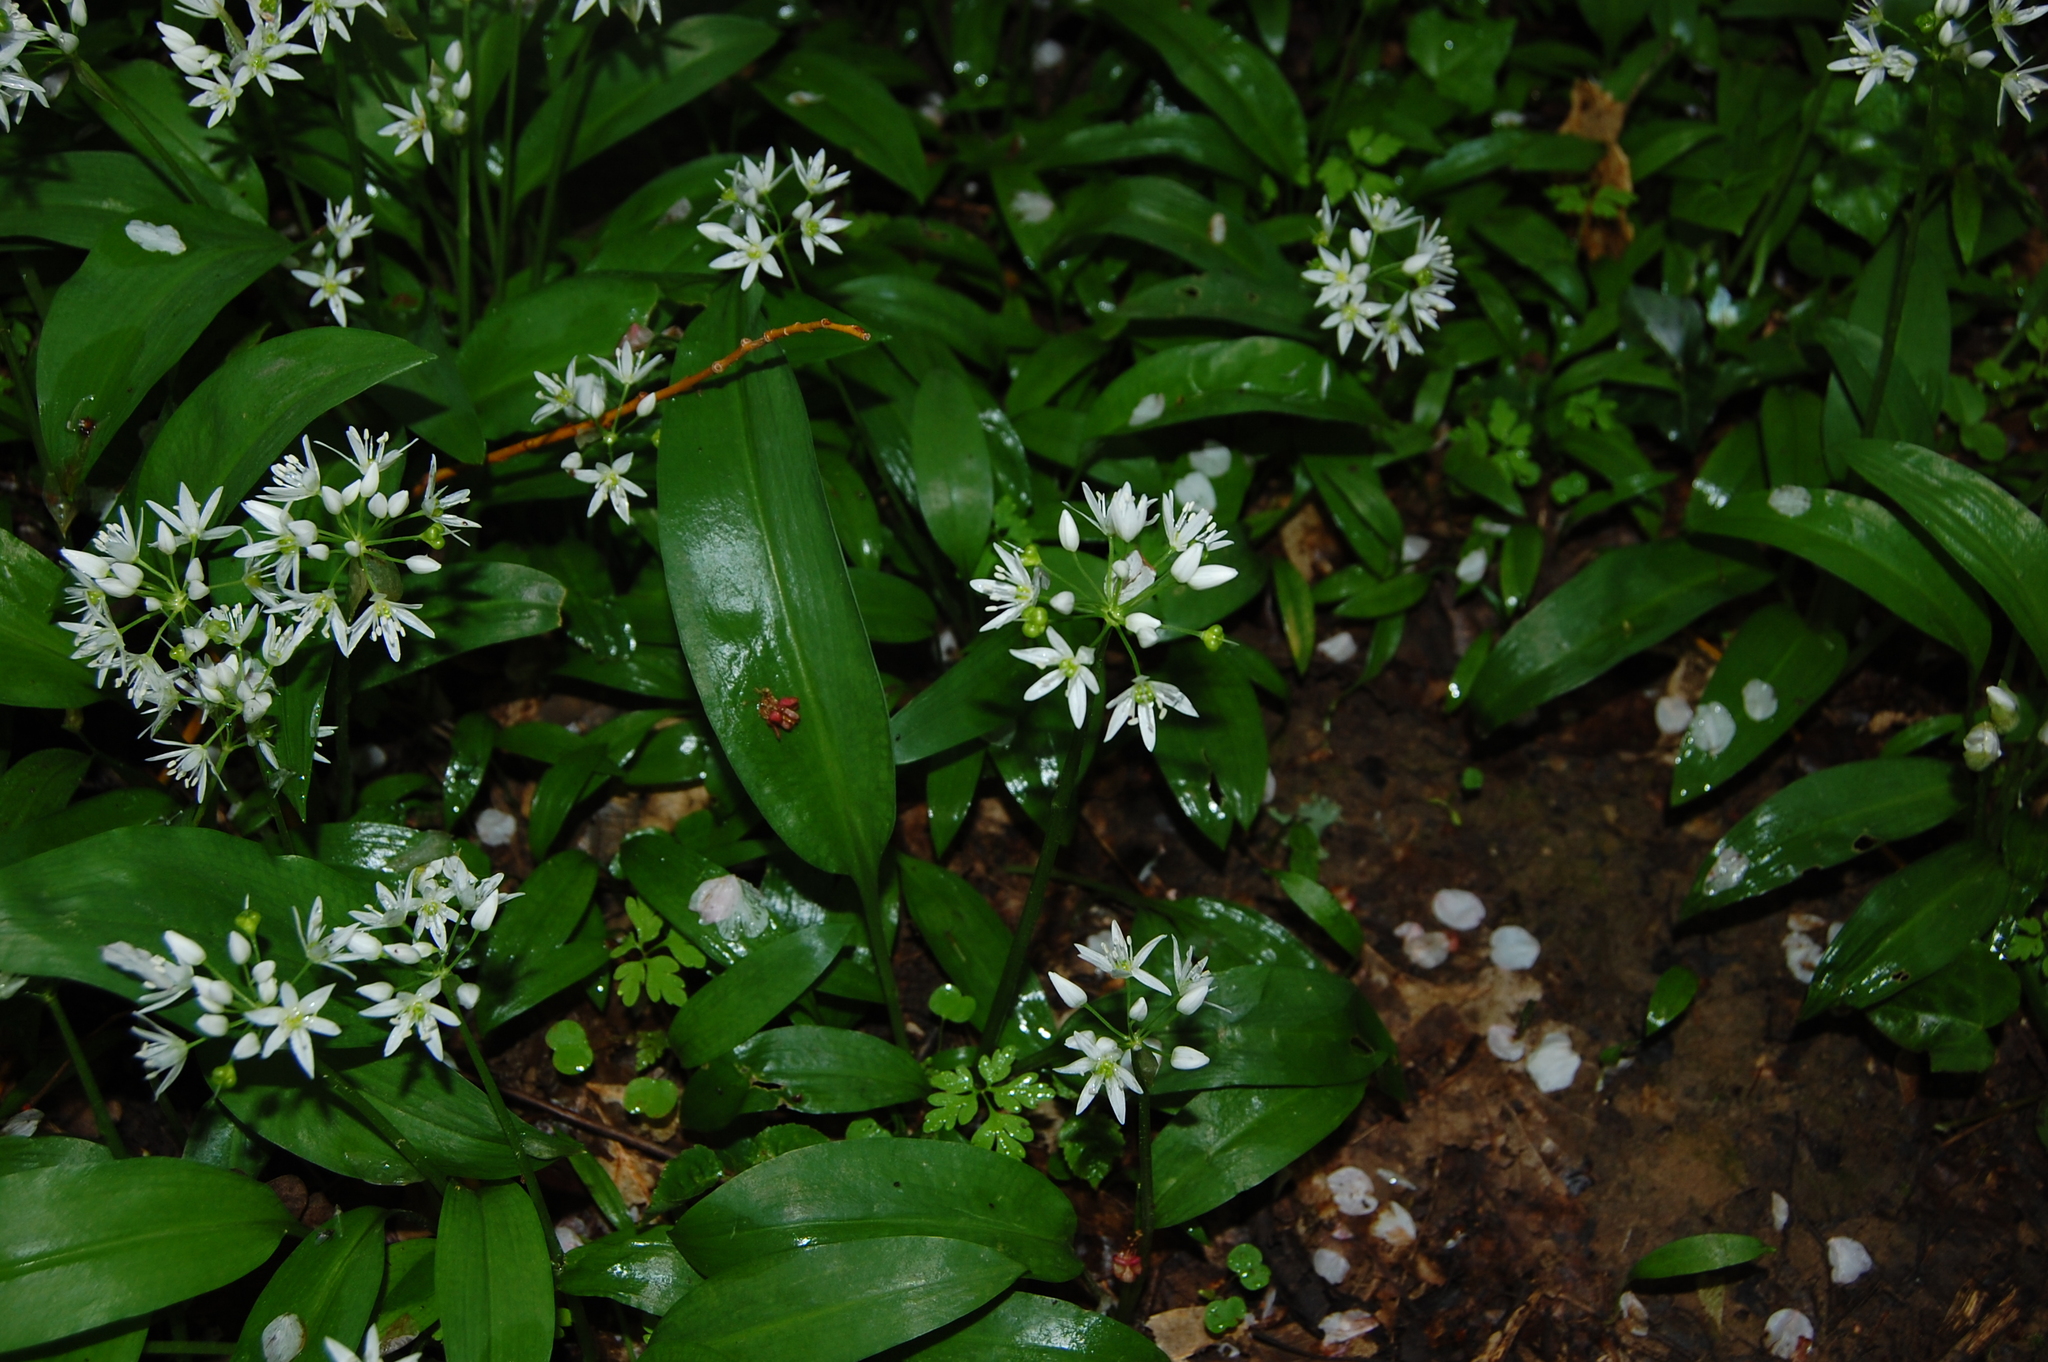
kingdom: Plantae
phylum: Tracheophyta
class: Liliopsida
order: Asparagales
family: Amaryllidaceae
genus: Allium
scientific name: Allium ursinum
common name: Ramsons
